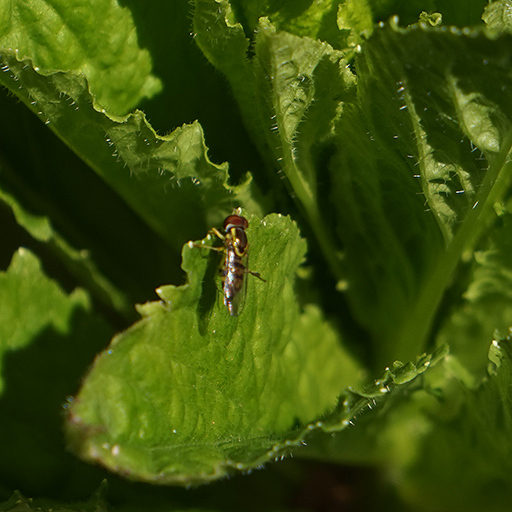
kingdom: Animalia
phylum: Arthropoda
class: Insecta
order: Diptera
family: Syrphidae
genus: Toxomerus
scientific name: Toxomerus geminatus
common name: Eastern calligrapher
